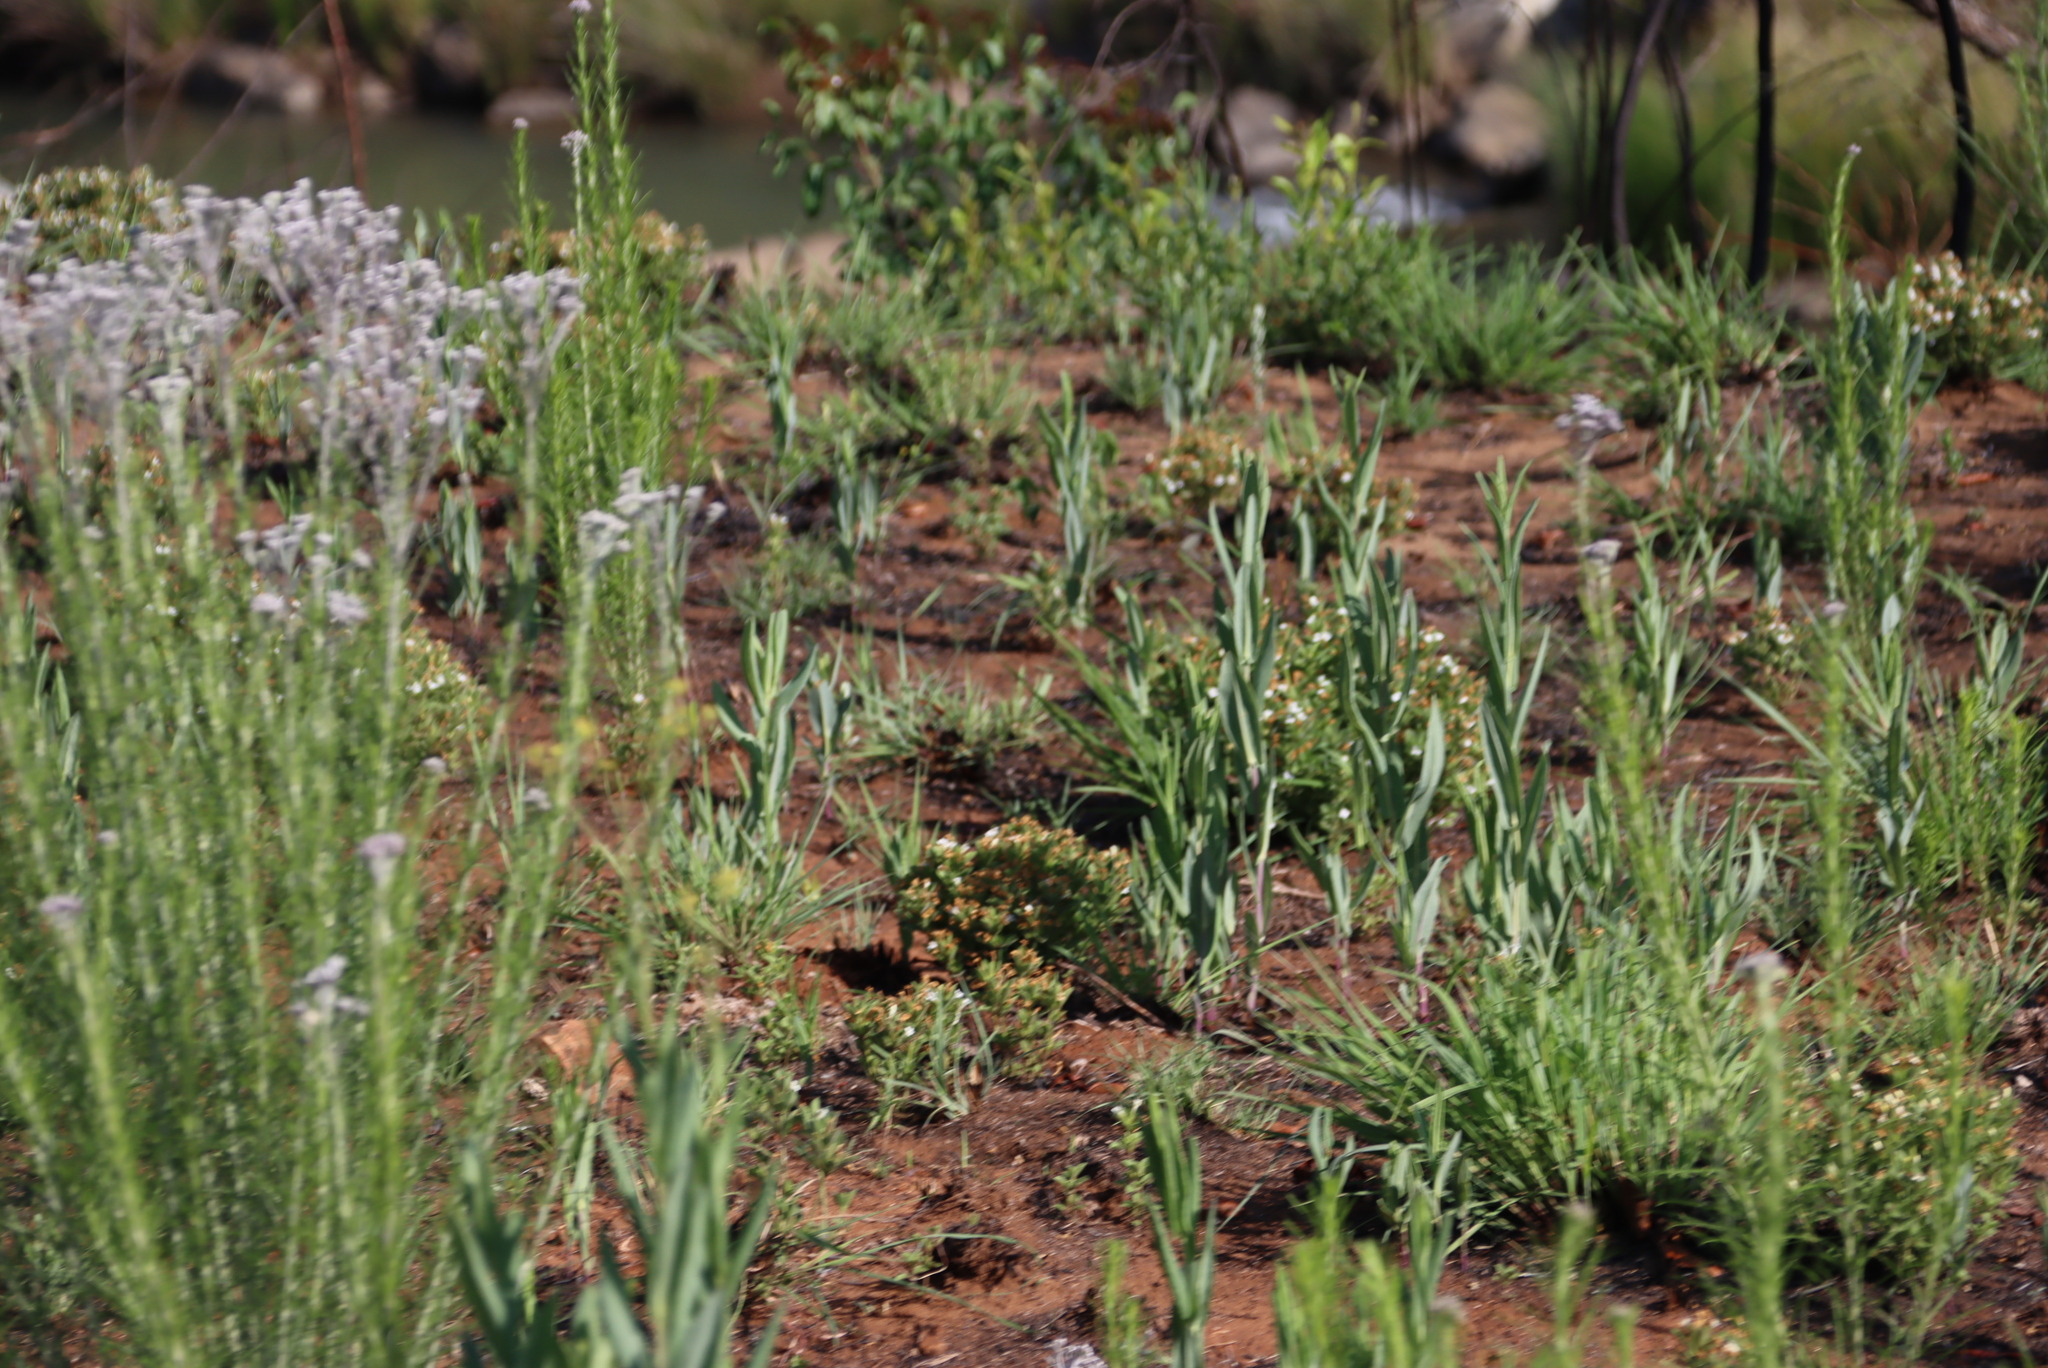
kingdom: Plantae
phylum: Tracheophyta
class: Magnoliopsida
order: Asterales
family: Asteraceae
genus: Hilliardiella
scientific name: Hilliardiella capensis
